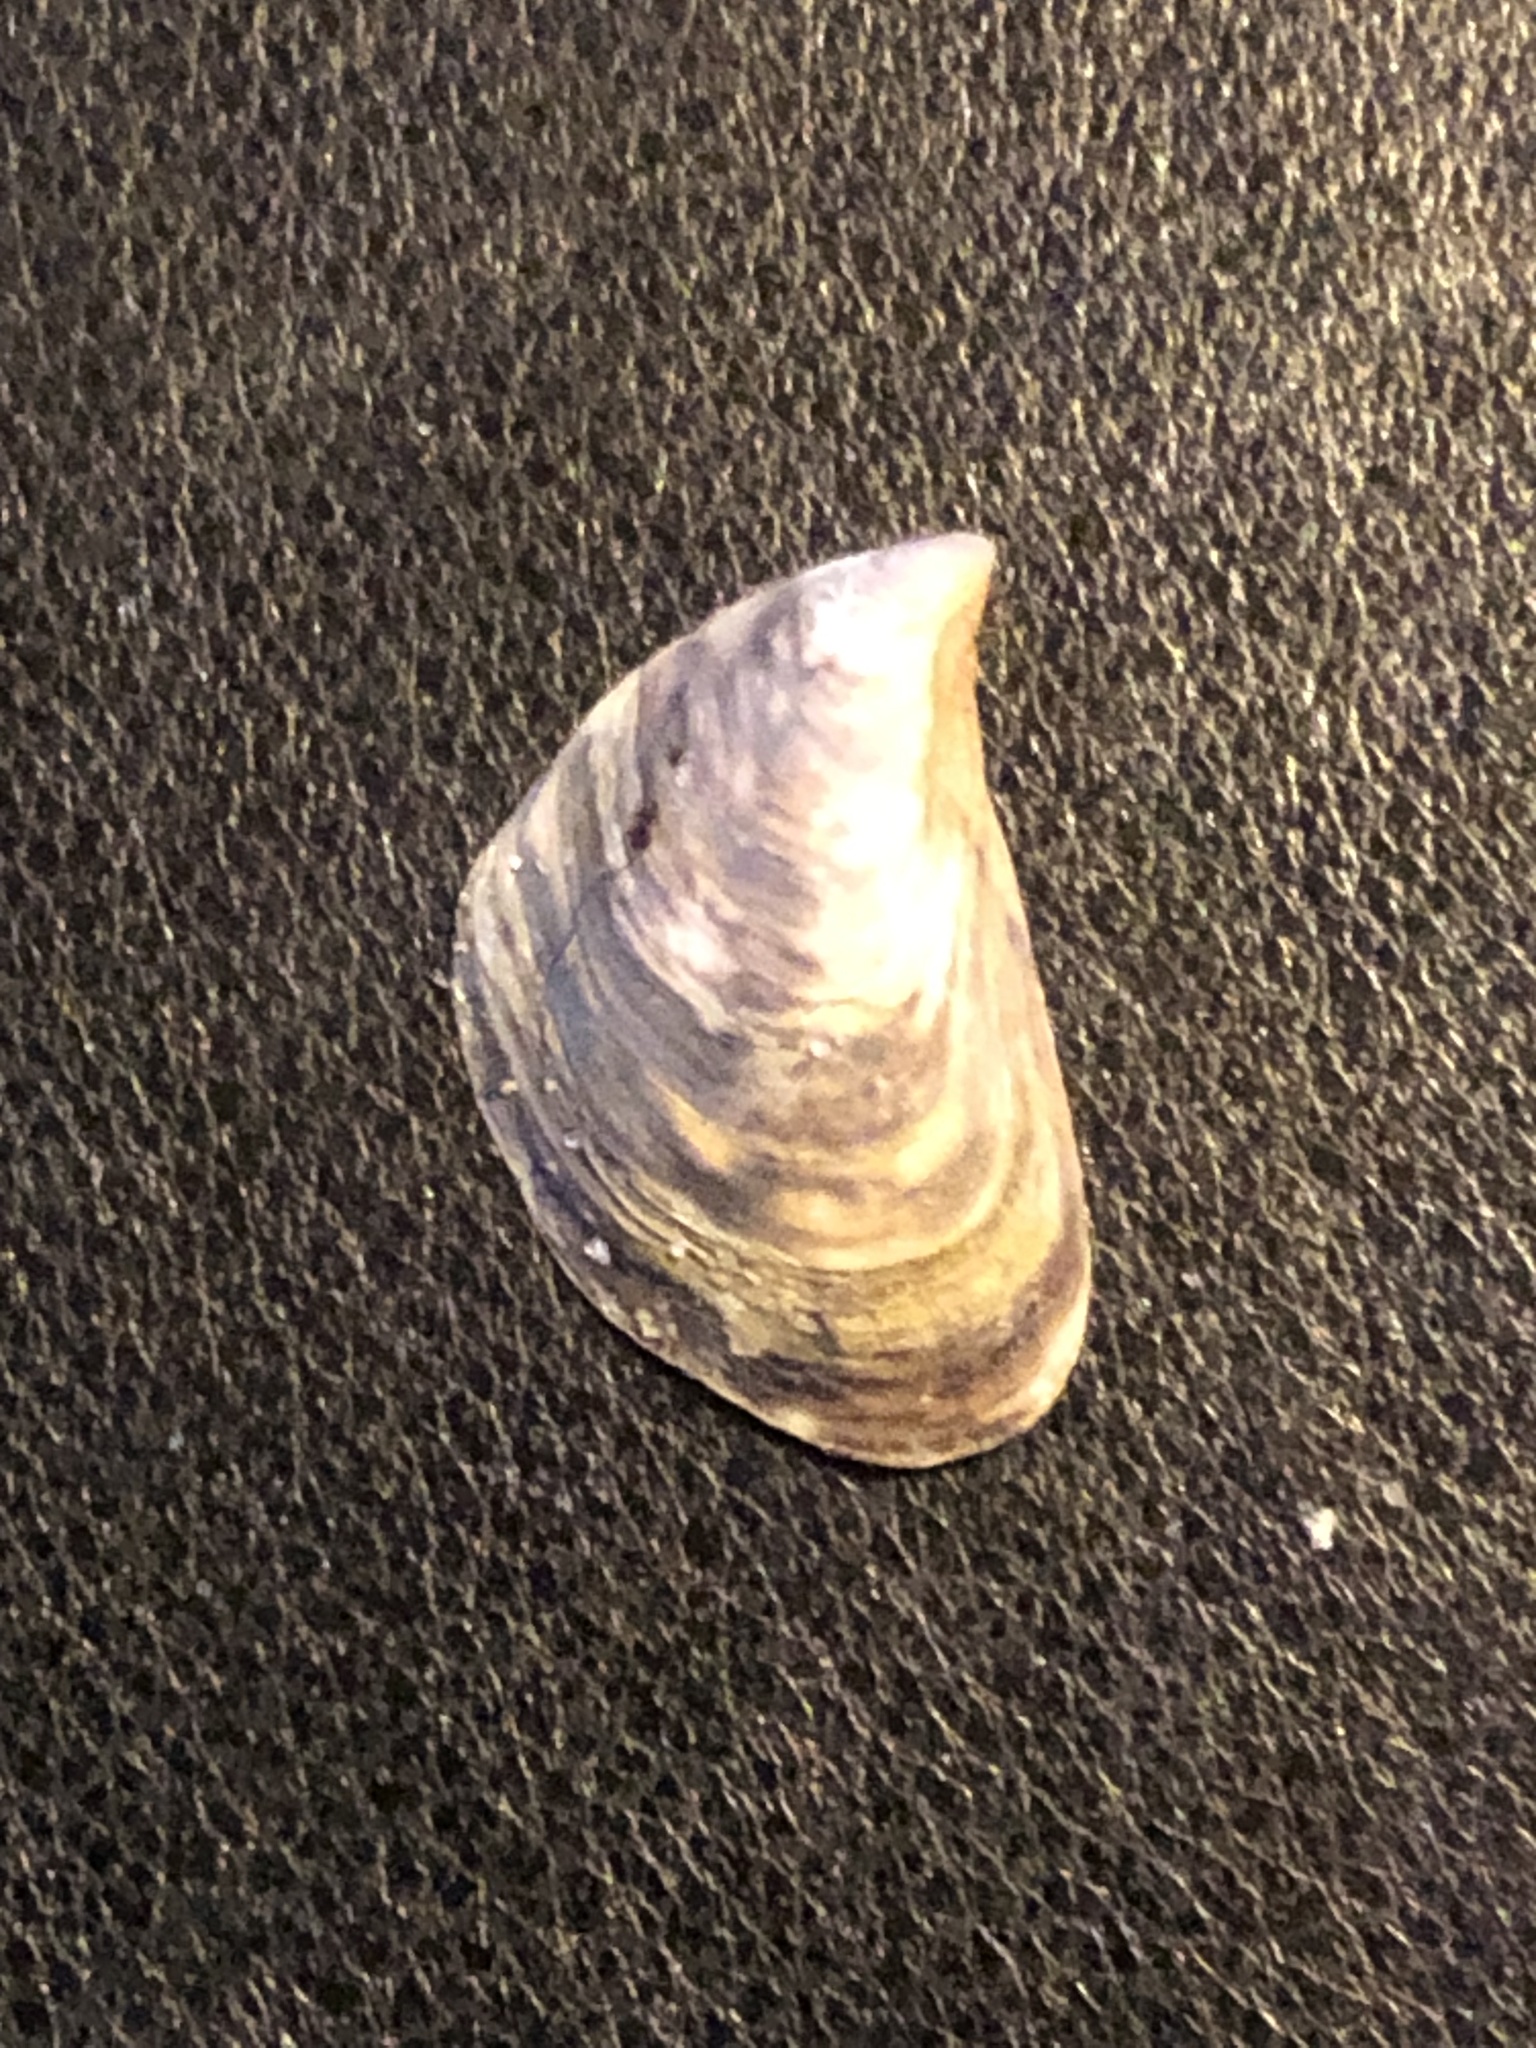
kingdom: Animalia
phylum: Mollusca
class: Bivalvia
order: Myida
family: Dreissenidae
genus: Dreissena
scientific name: Dreissena bugensis
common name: Quagga mussel
